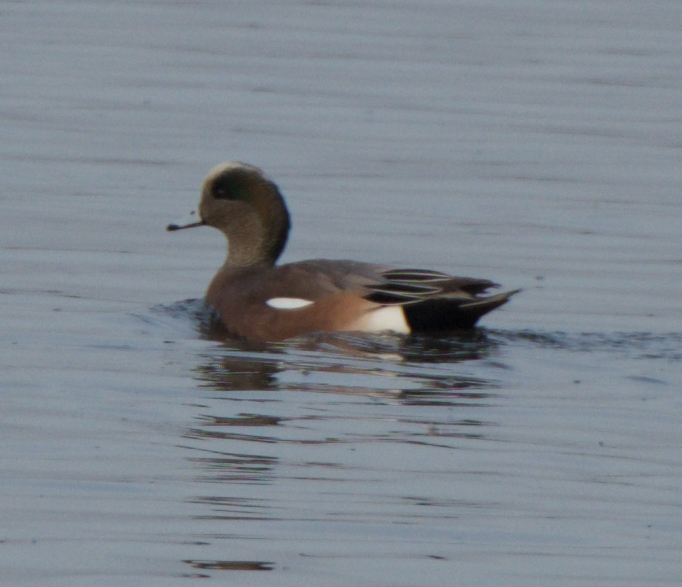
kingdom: Animalia
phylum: Chordata
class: Aves
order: Anseriformes
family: Anatidae
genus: Mareca
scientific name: Mareca americana
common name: American wigeon
